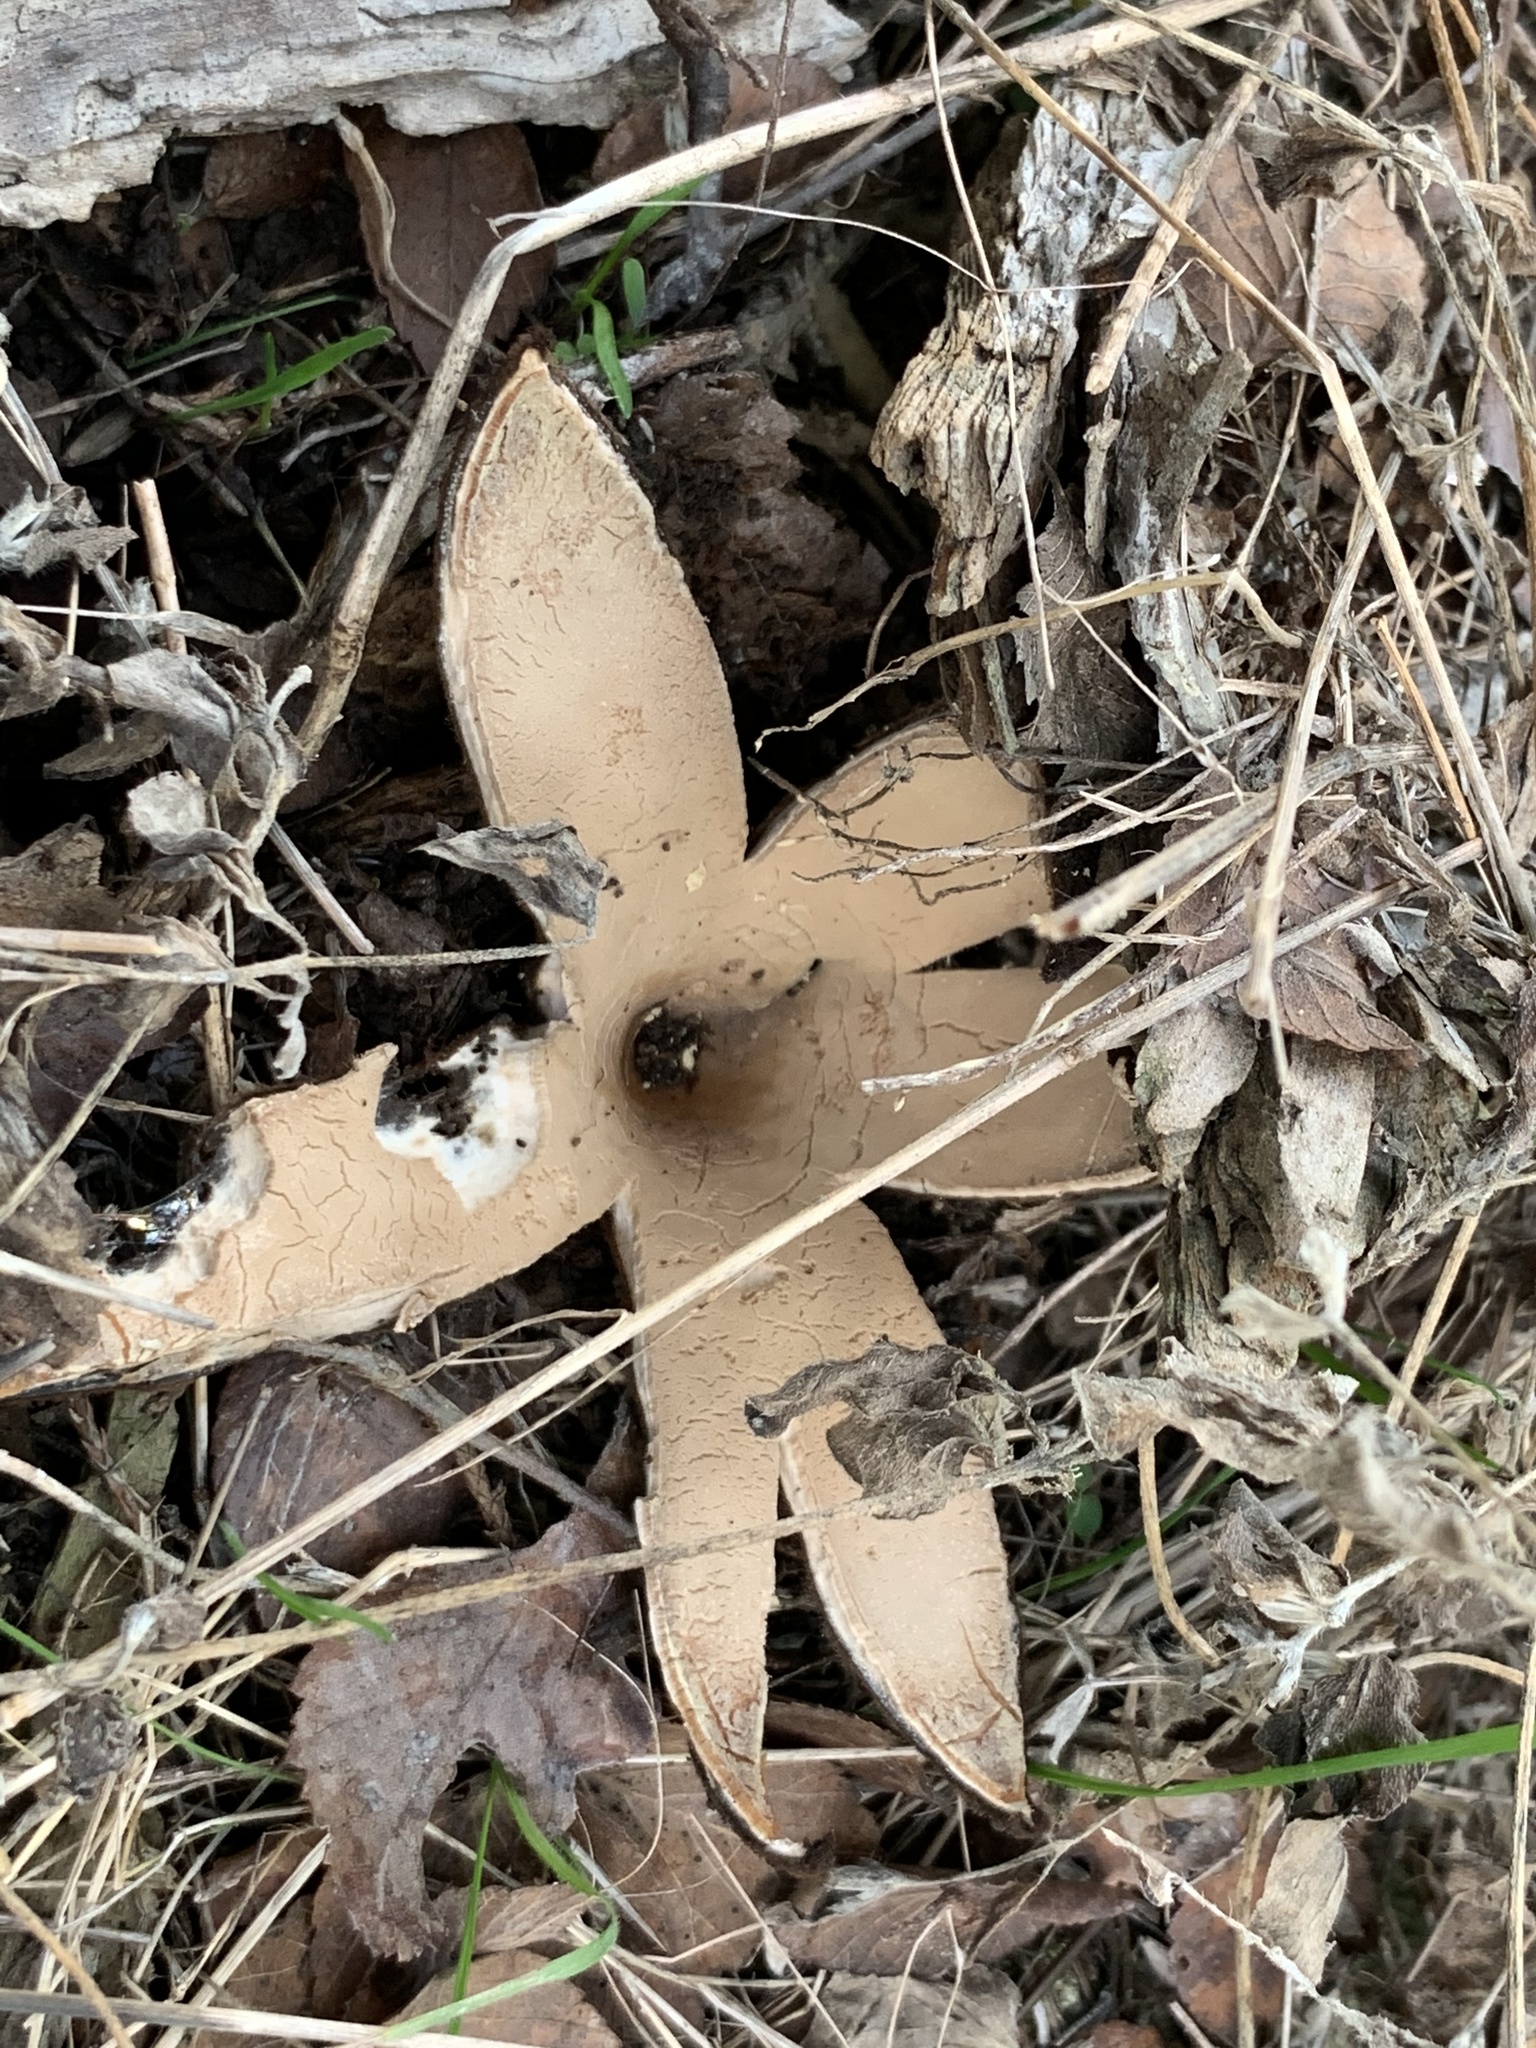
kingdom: Fungi
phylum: Ascomycota
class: Pezizomycetes
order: Pezizales
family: Chorioactidaceae
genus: Chorioactis
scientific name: Chorioactis geaster
